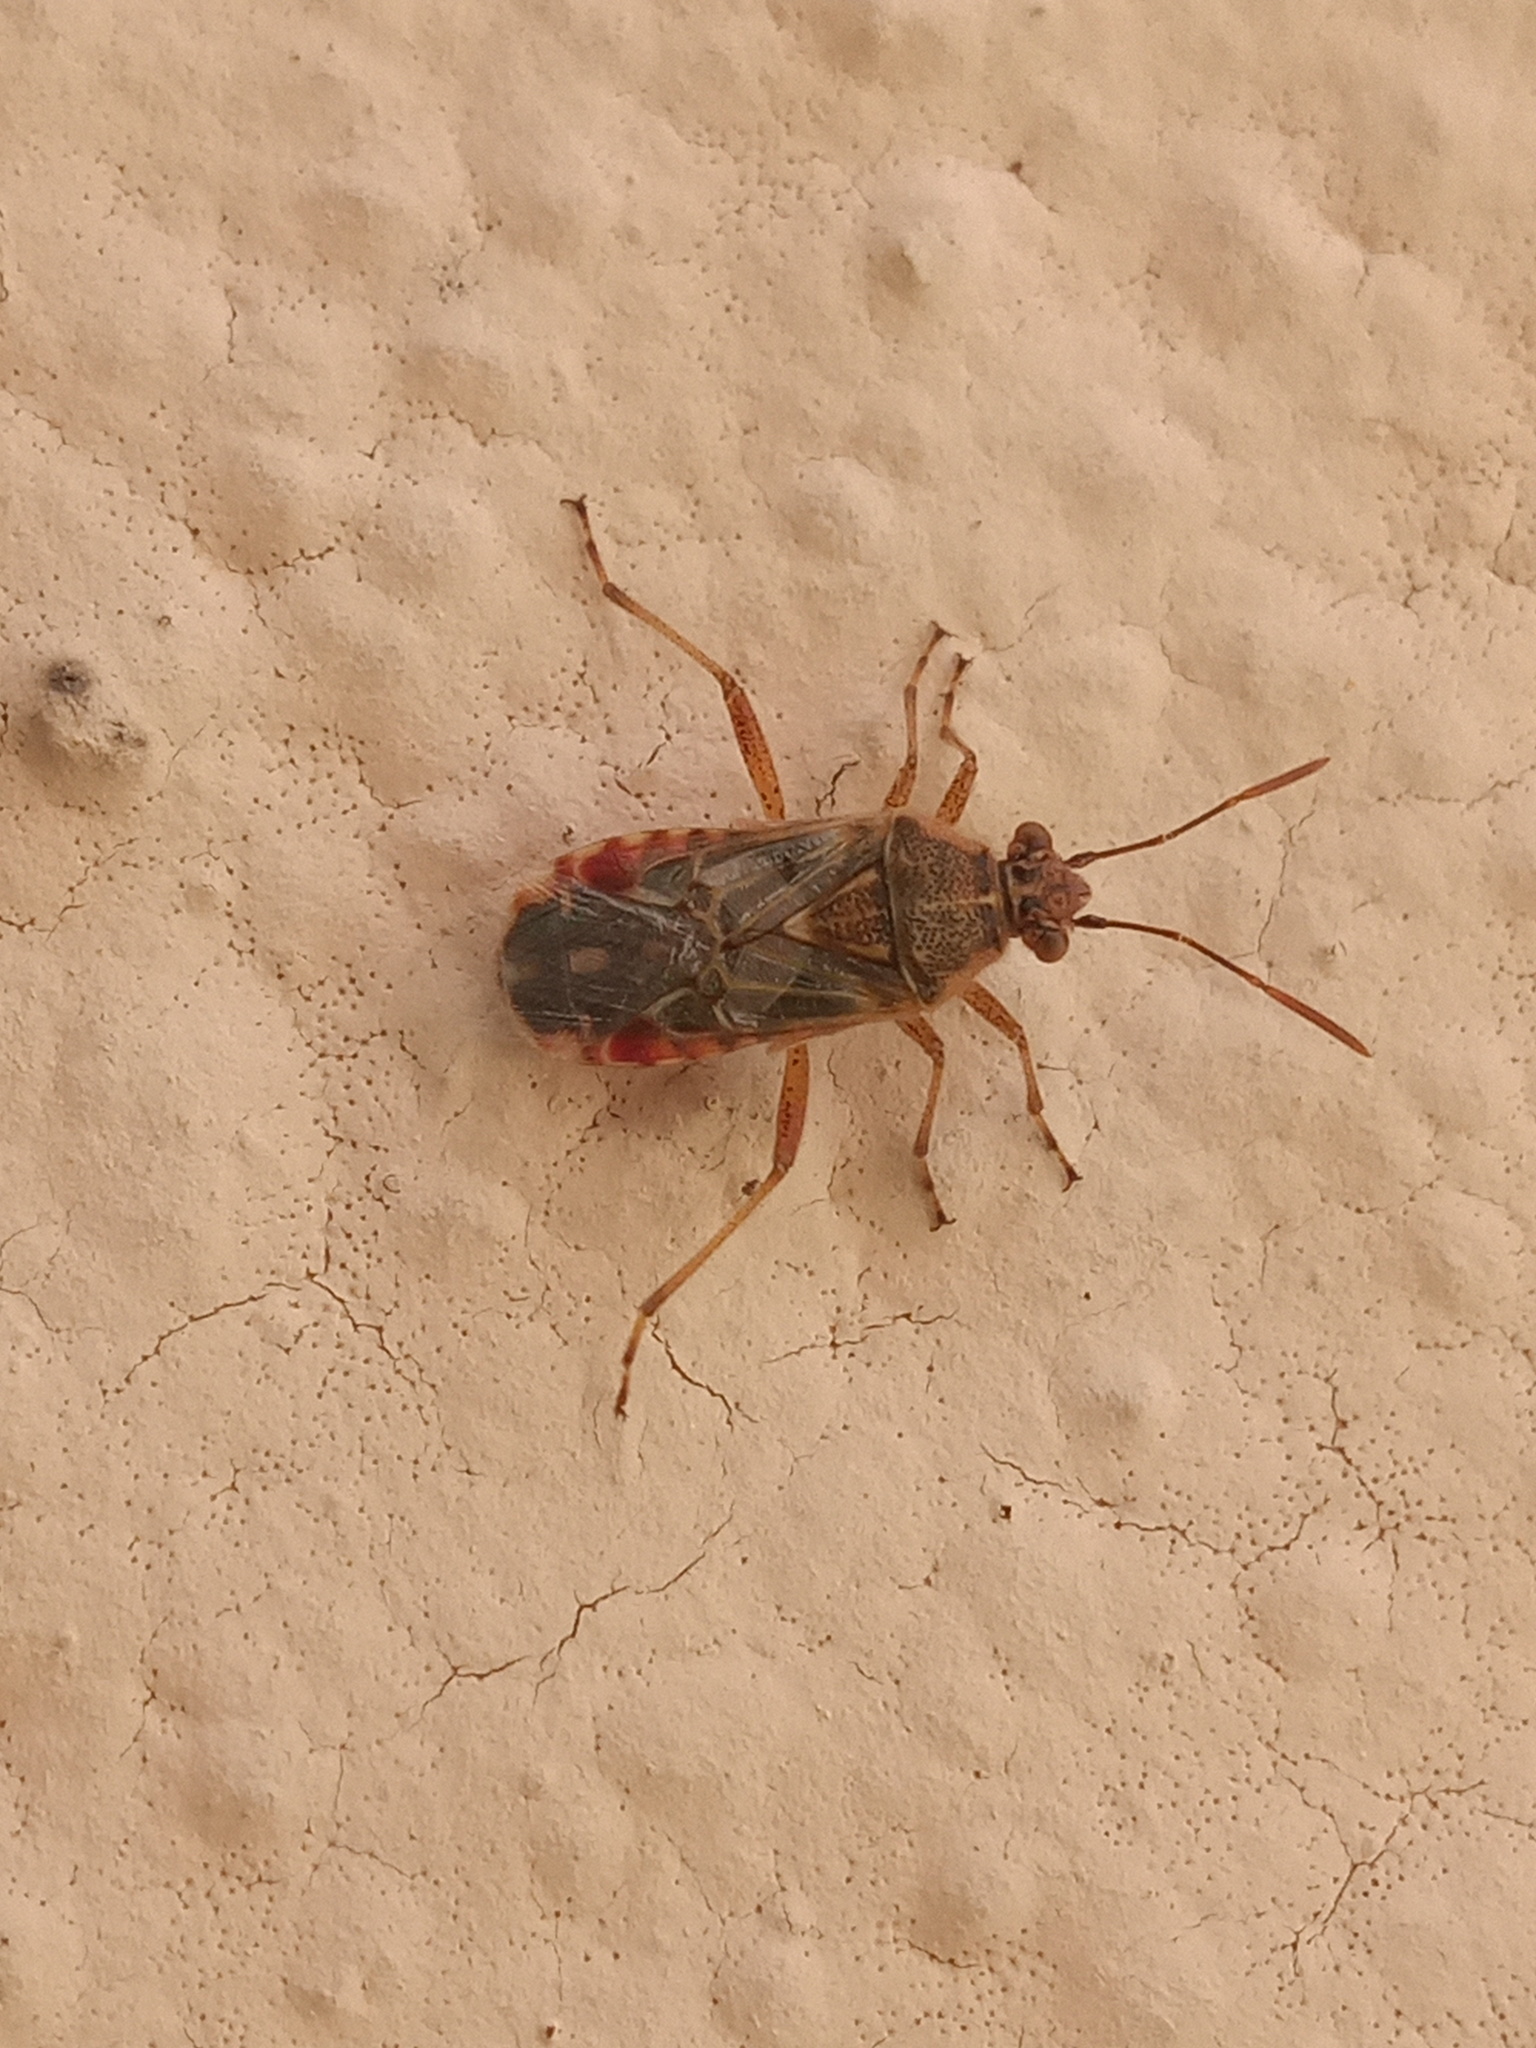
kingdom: Animalia
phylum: Arthropoda
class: Insecta
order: Hemiptera
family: Rhopalidae
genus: Liorhyssus
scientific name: Liorhyssus hyalinus
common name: Scentless plant bug
